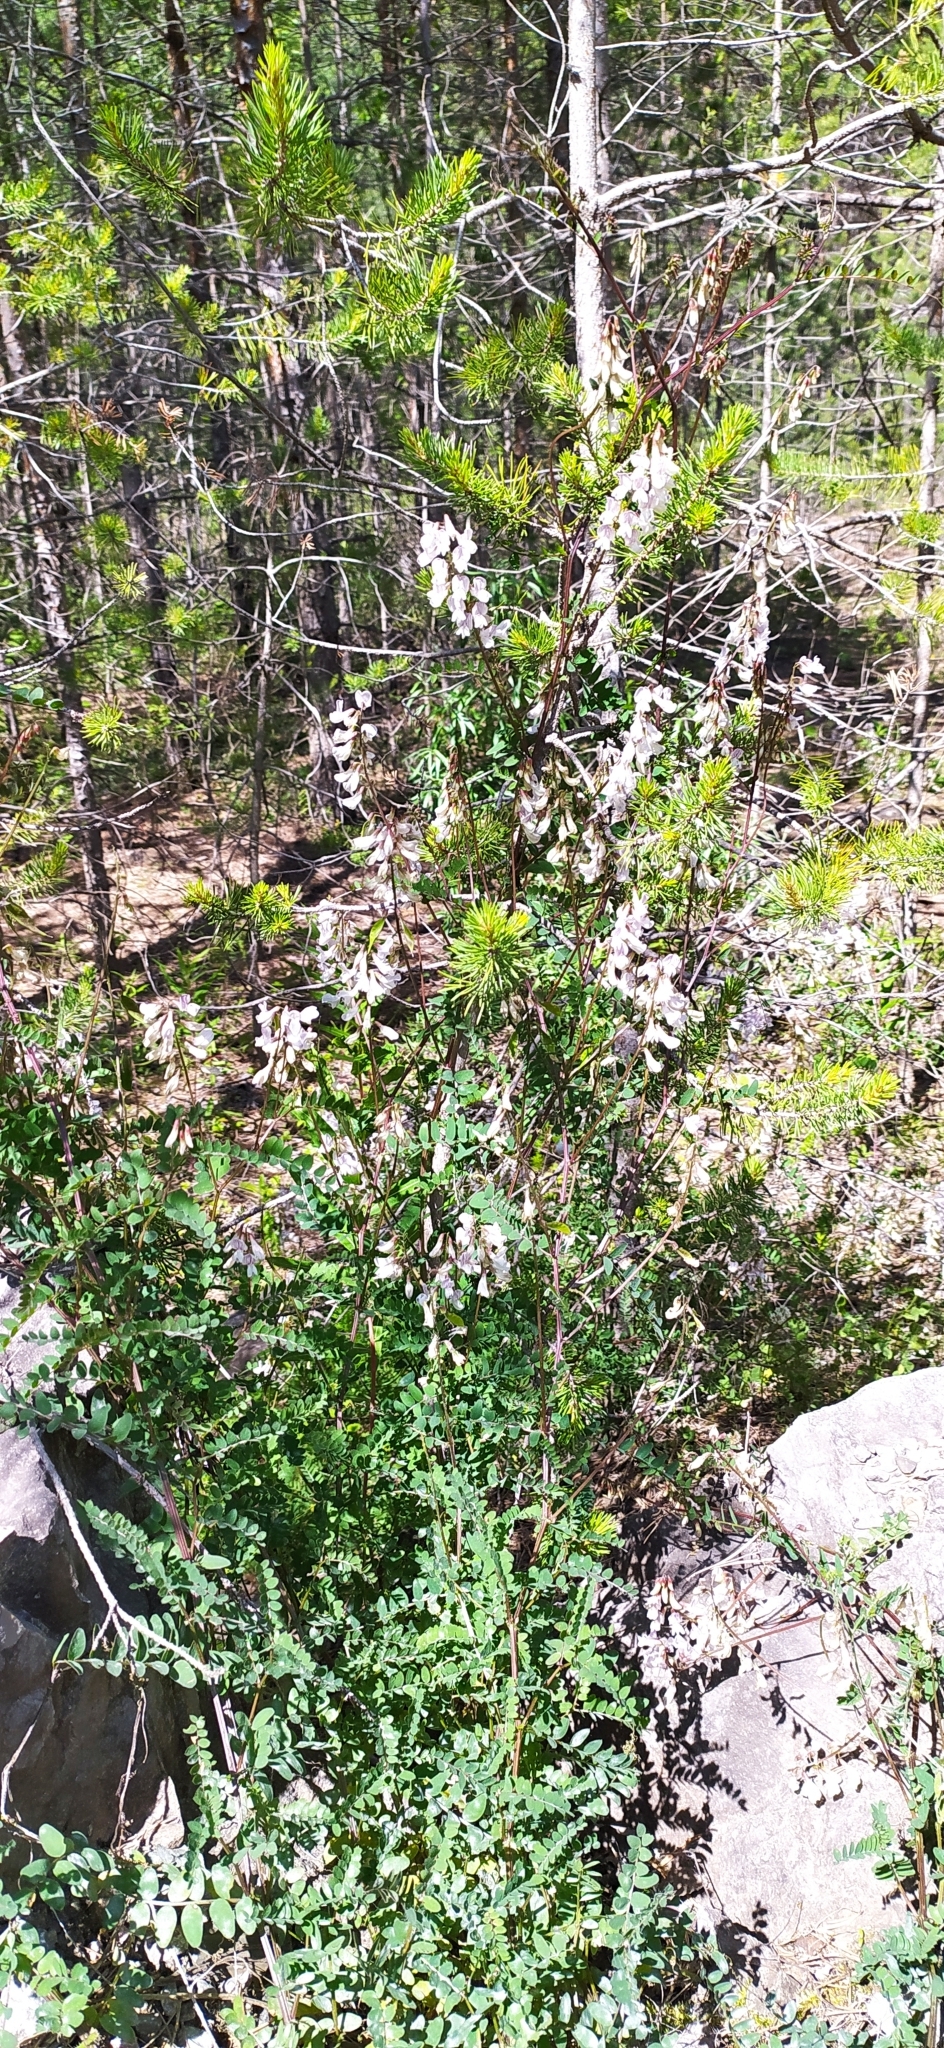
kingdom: Plantae
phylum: Tracheophyta
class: Magnoliopsida
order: Fabales
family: Fabaceae
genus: Vicia
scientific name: Vicia sylvatica
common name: Wood vetch
